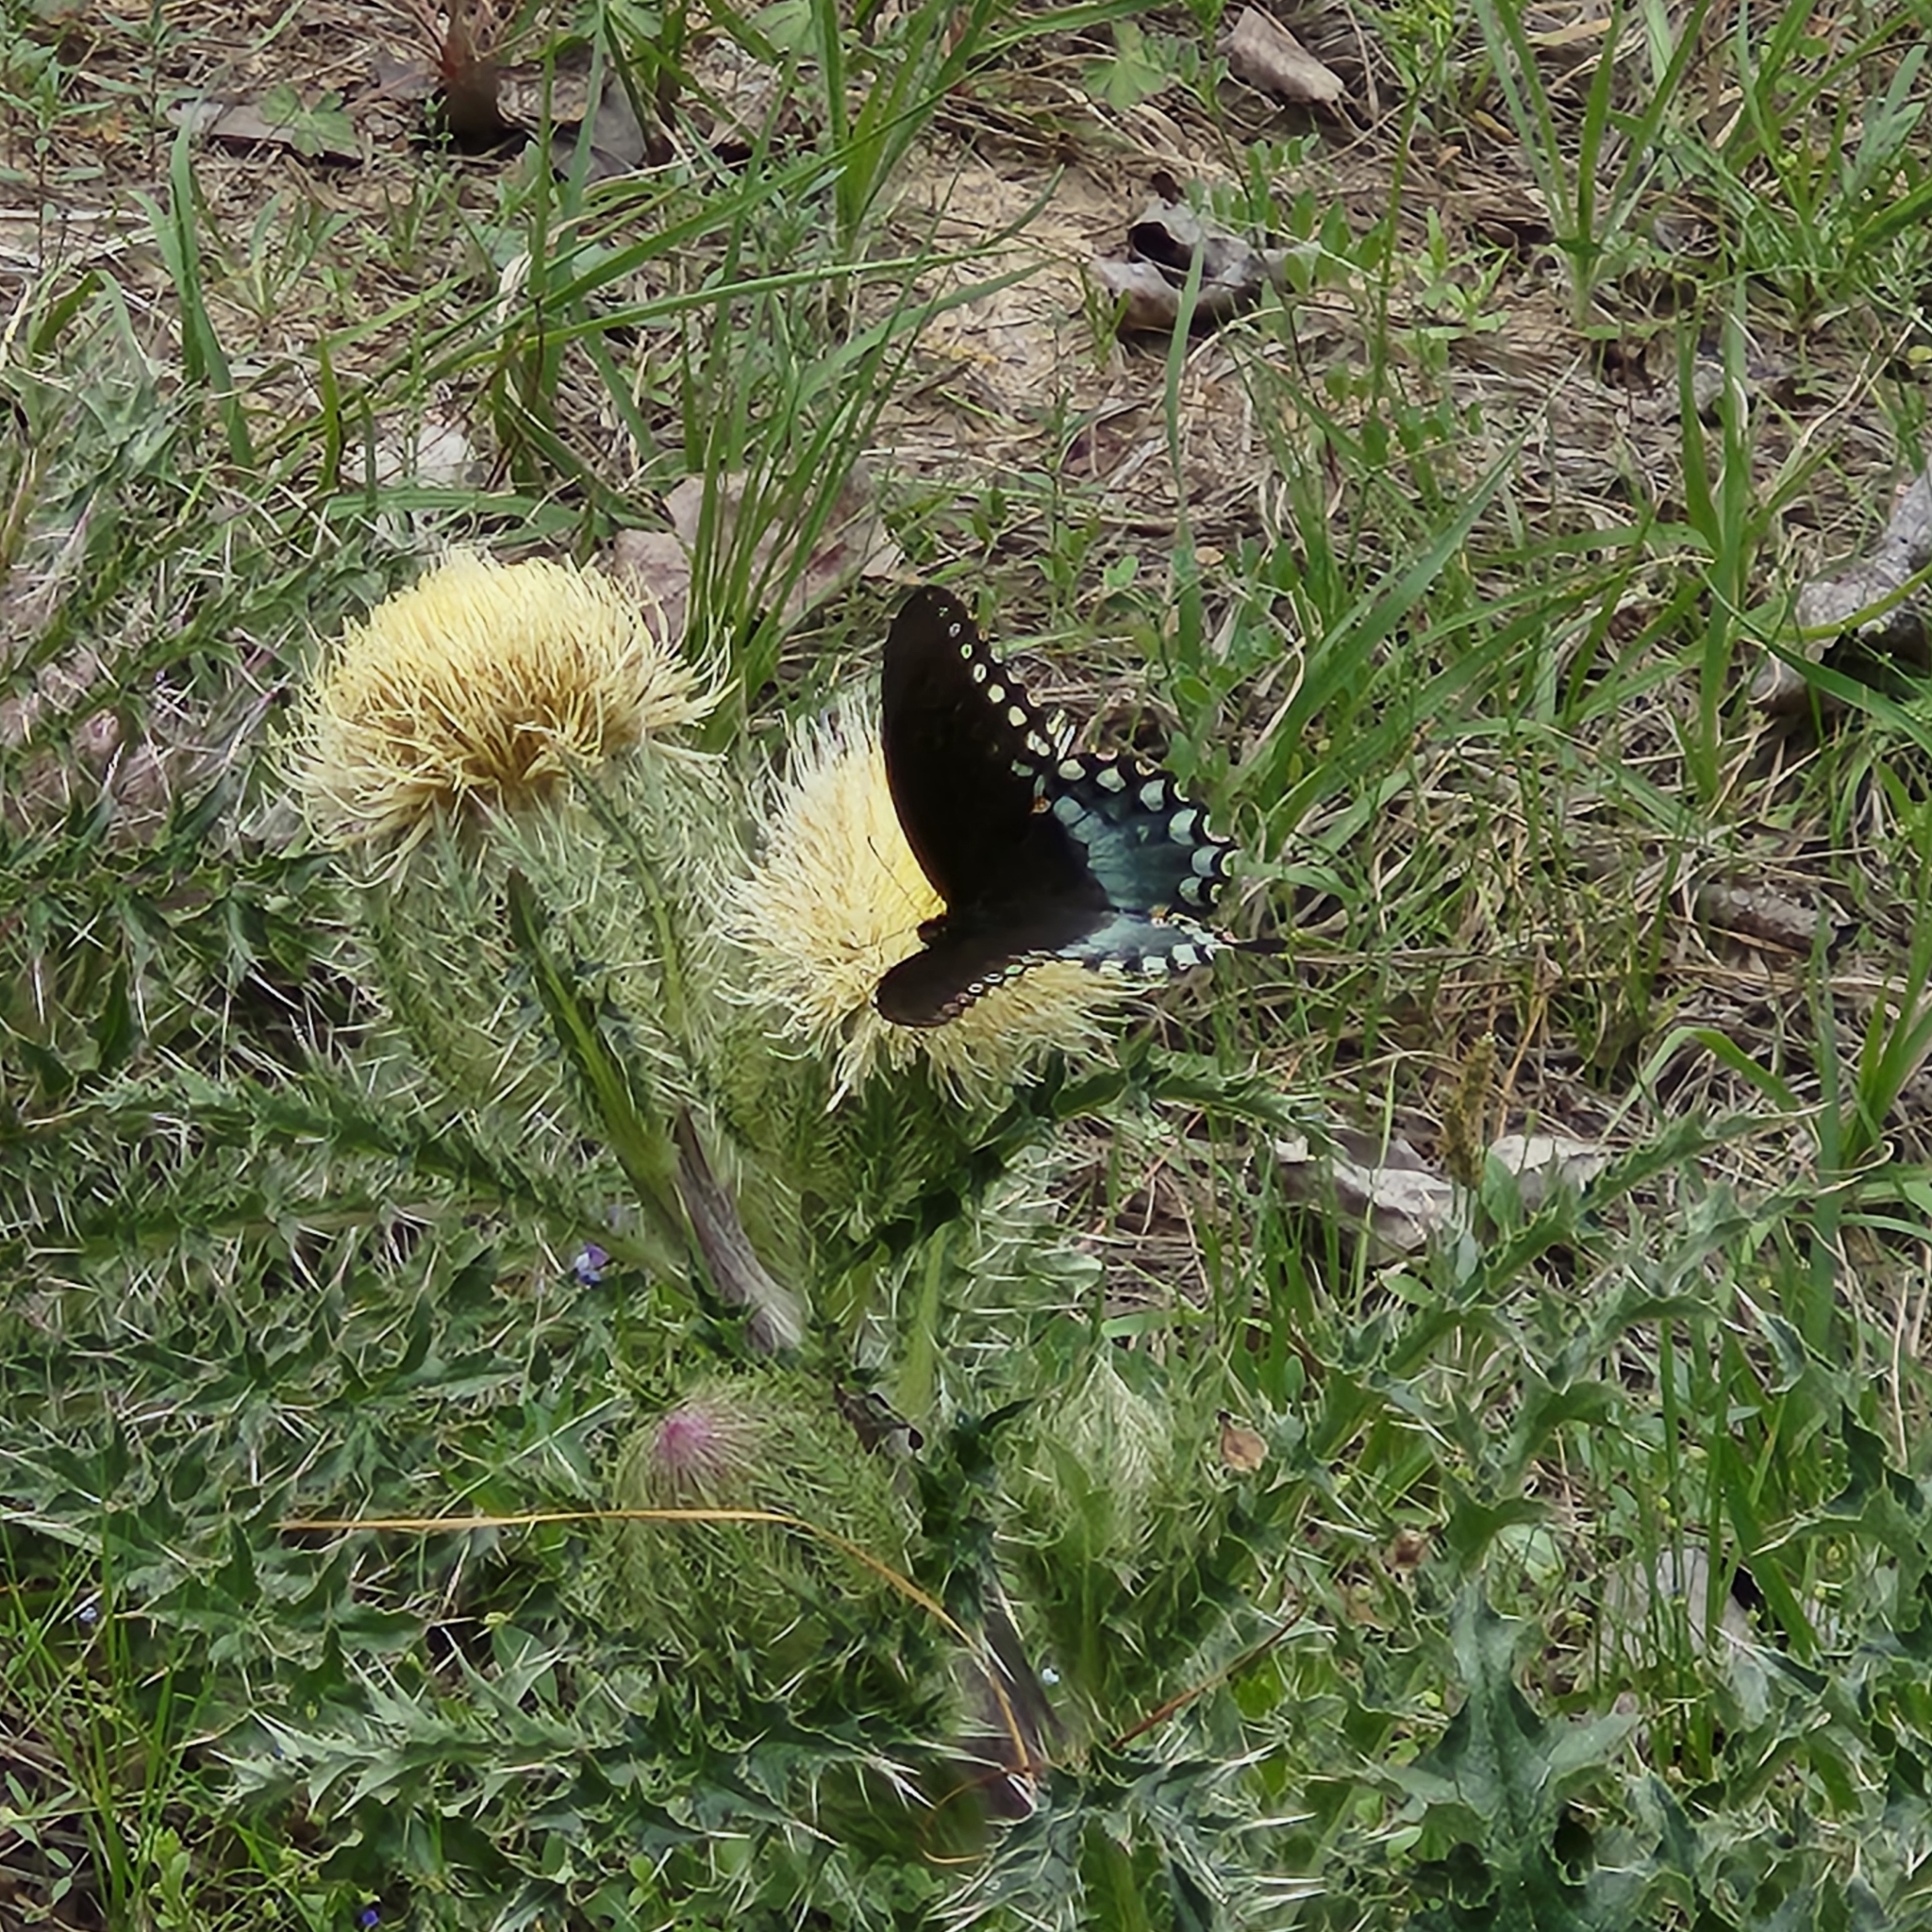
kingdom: Animalia
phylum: Arthropoda
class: Insecta
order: Lepidoptera
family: Papilionidae
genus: Papilio
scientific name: Papilio troilus
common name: Spicebush swallowtail
